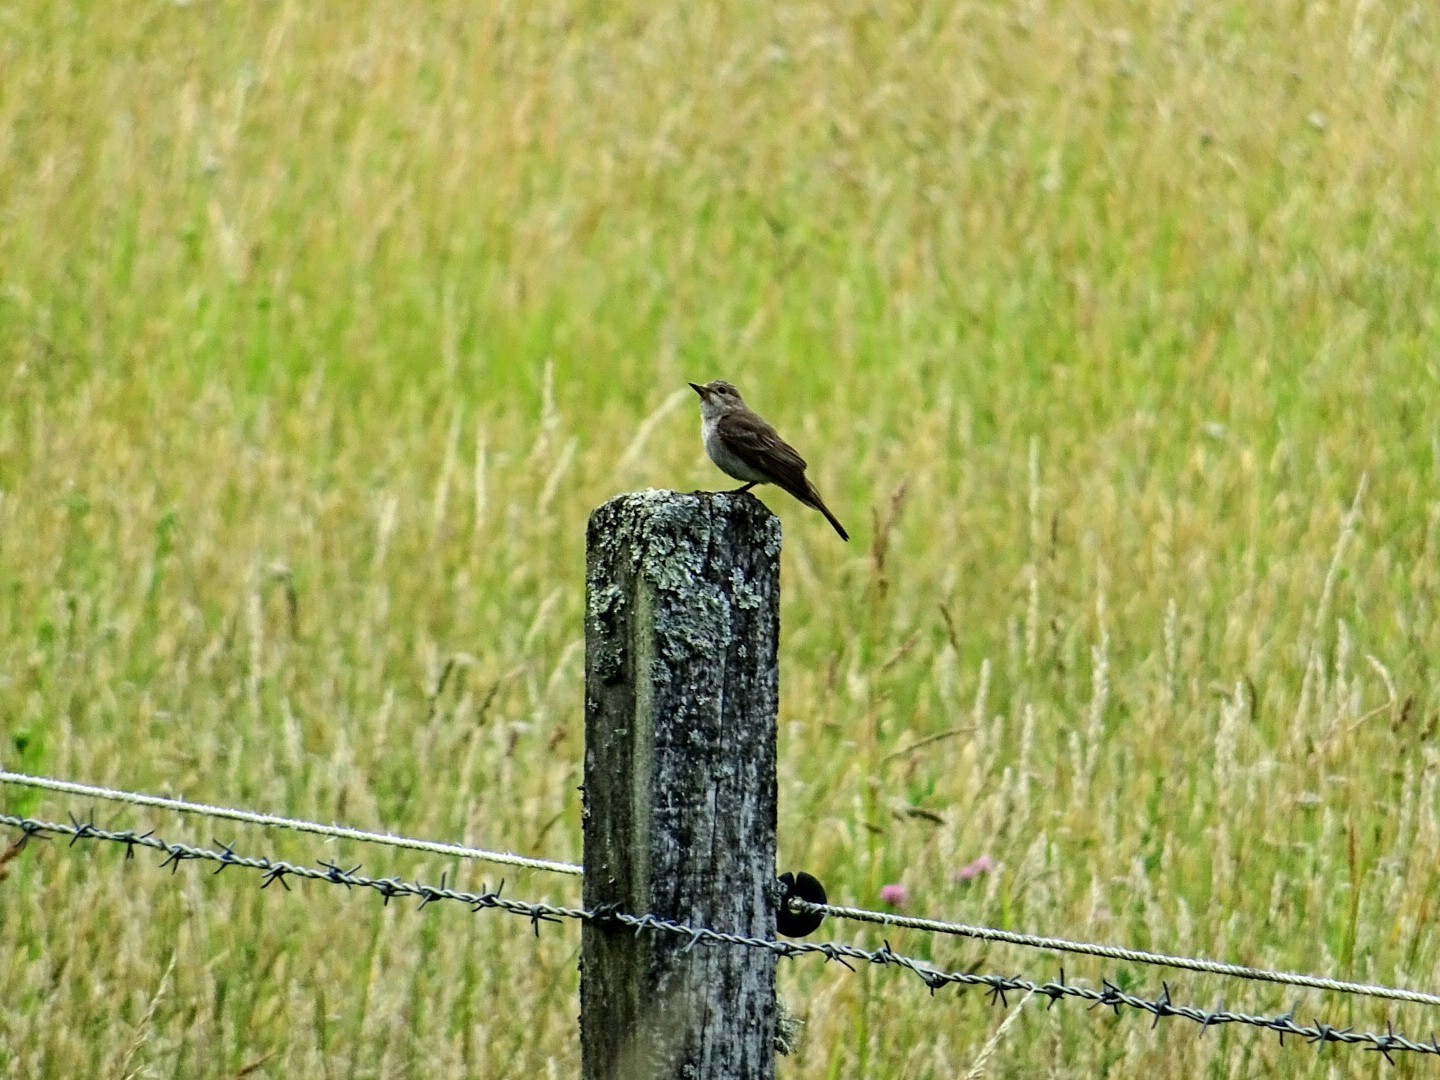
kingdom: Animalia
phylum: Chordata
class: Aves
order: Passeriformes
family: Muscicapidae
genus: Muscicapa
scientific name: Muscicapa striata
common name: Spotted flycatcher
